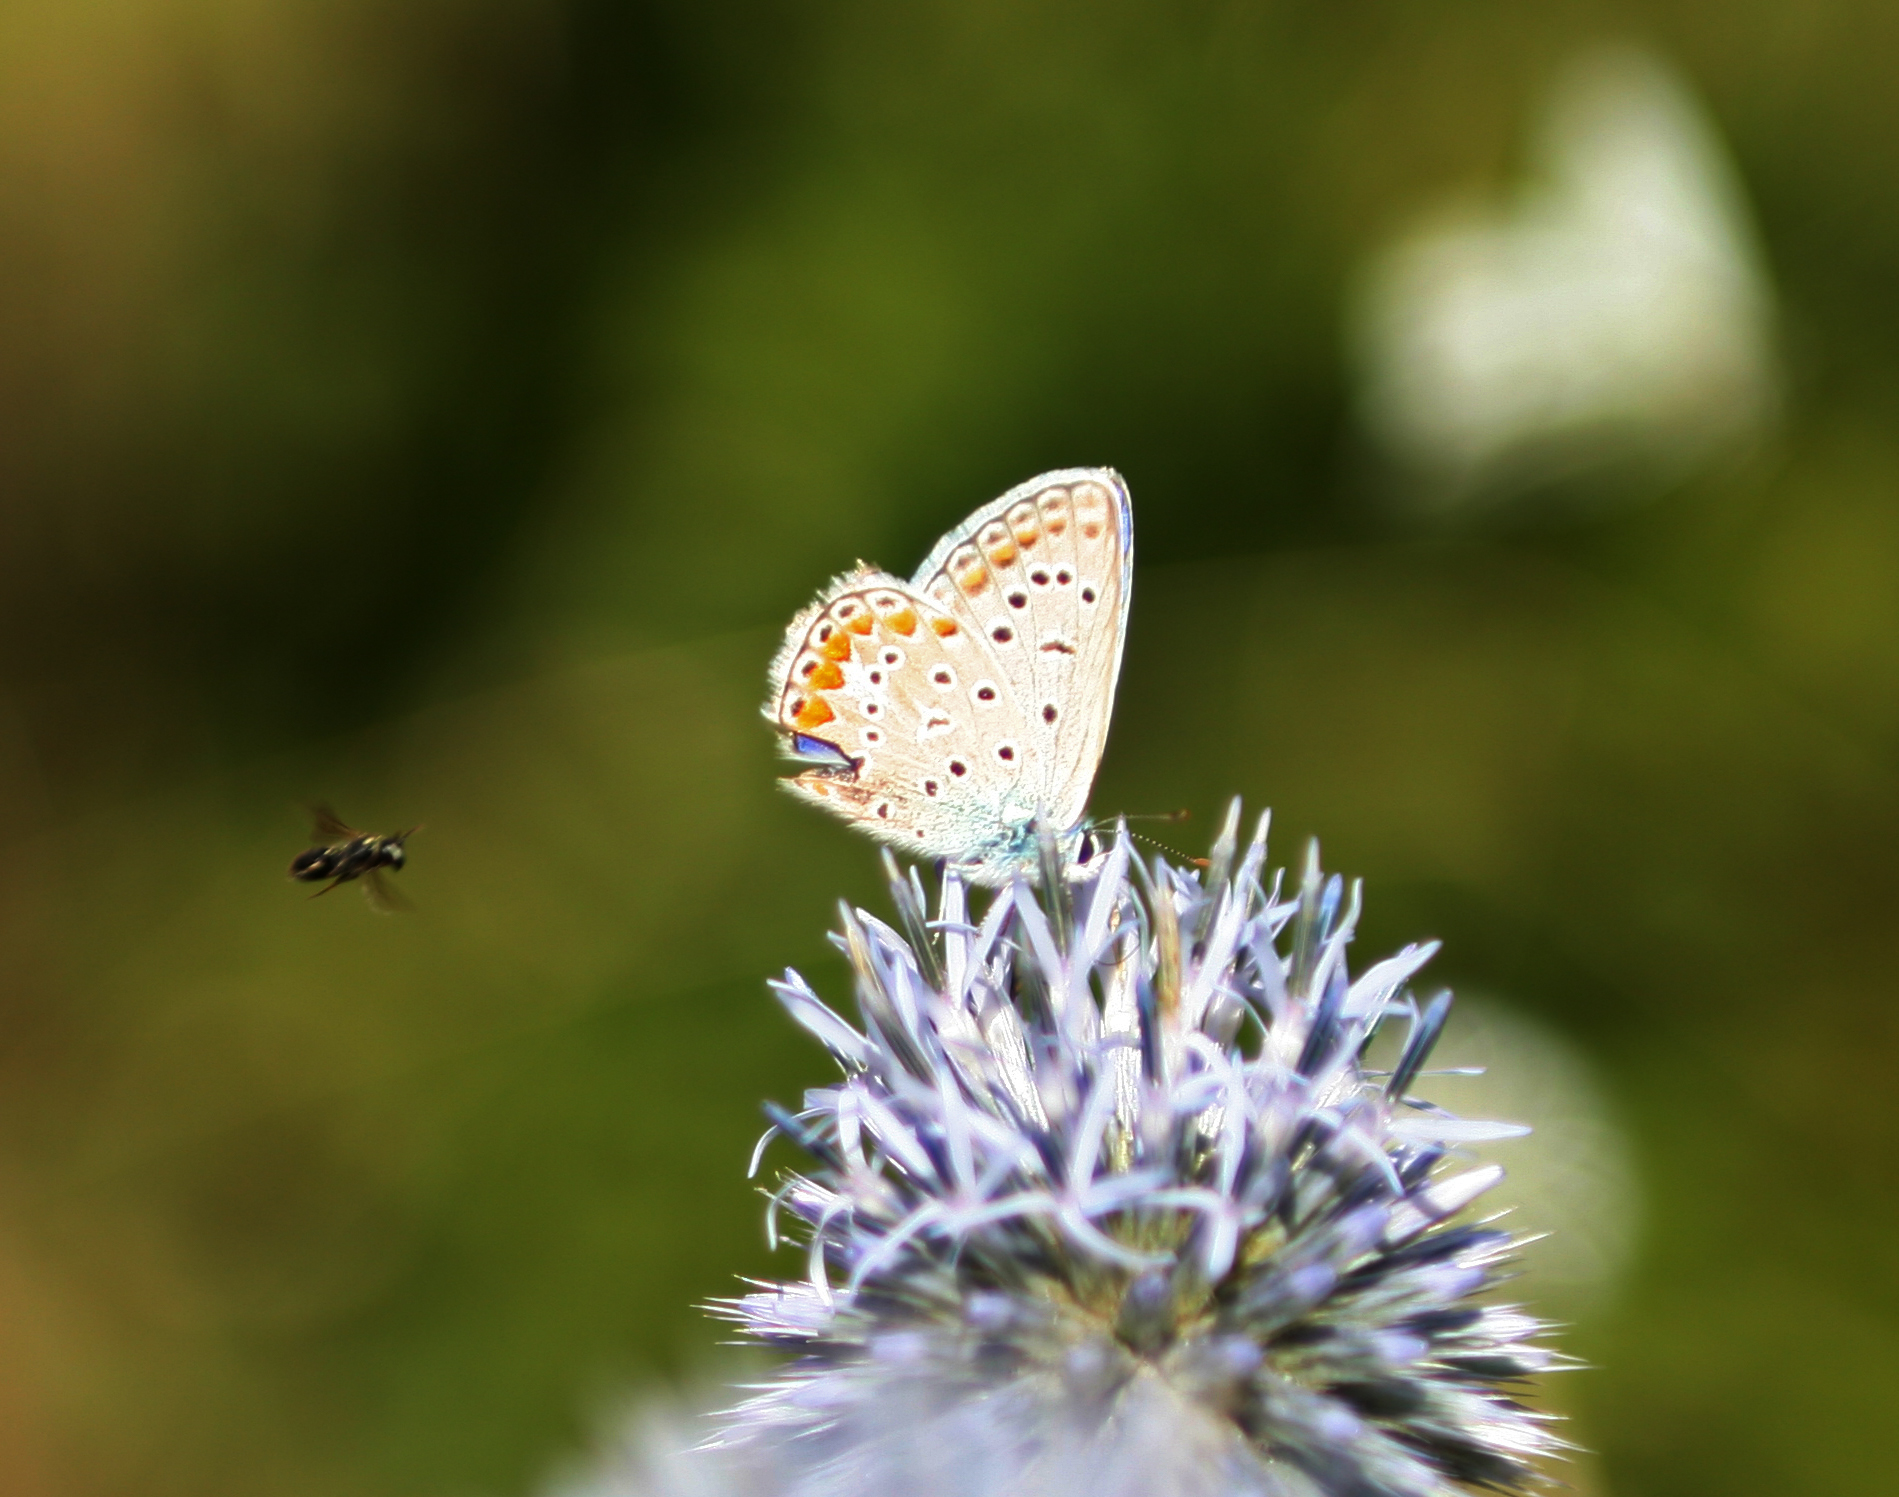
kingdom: Animalia
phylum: Arthropoda
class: Insecta
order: Lepidoptera
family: Lycaenidae
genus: Polyommatus
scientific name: Polyommatus icarus
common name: Common blue
